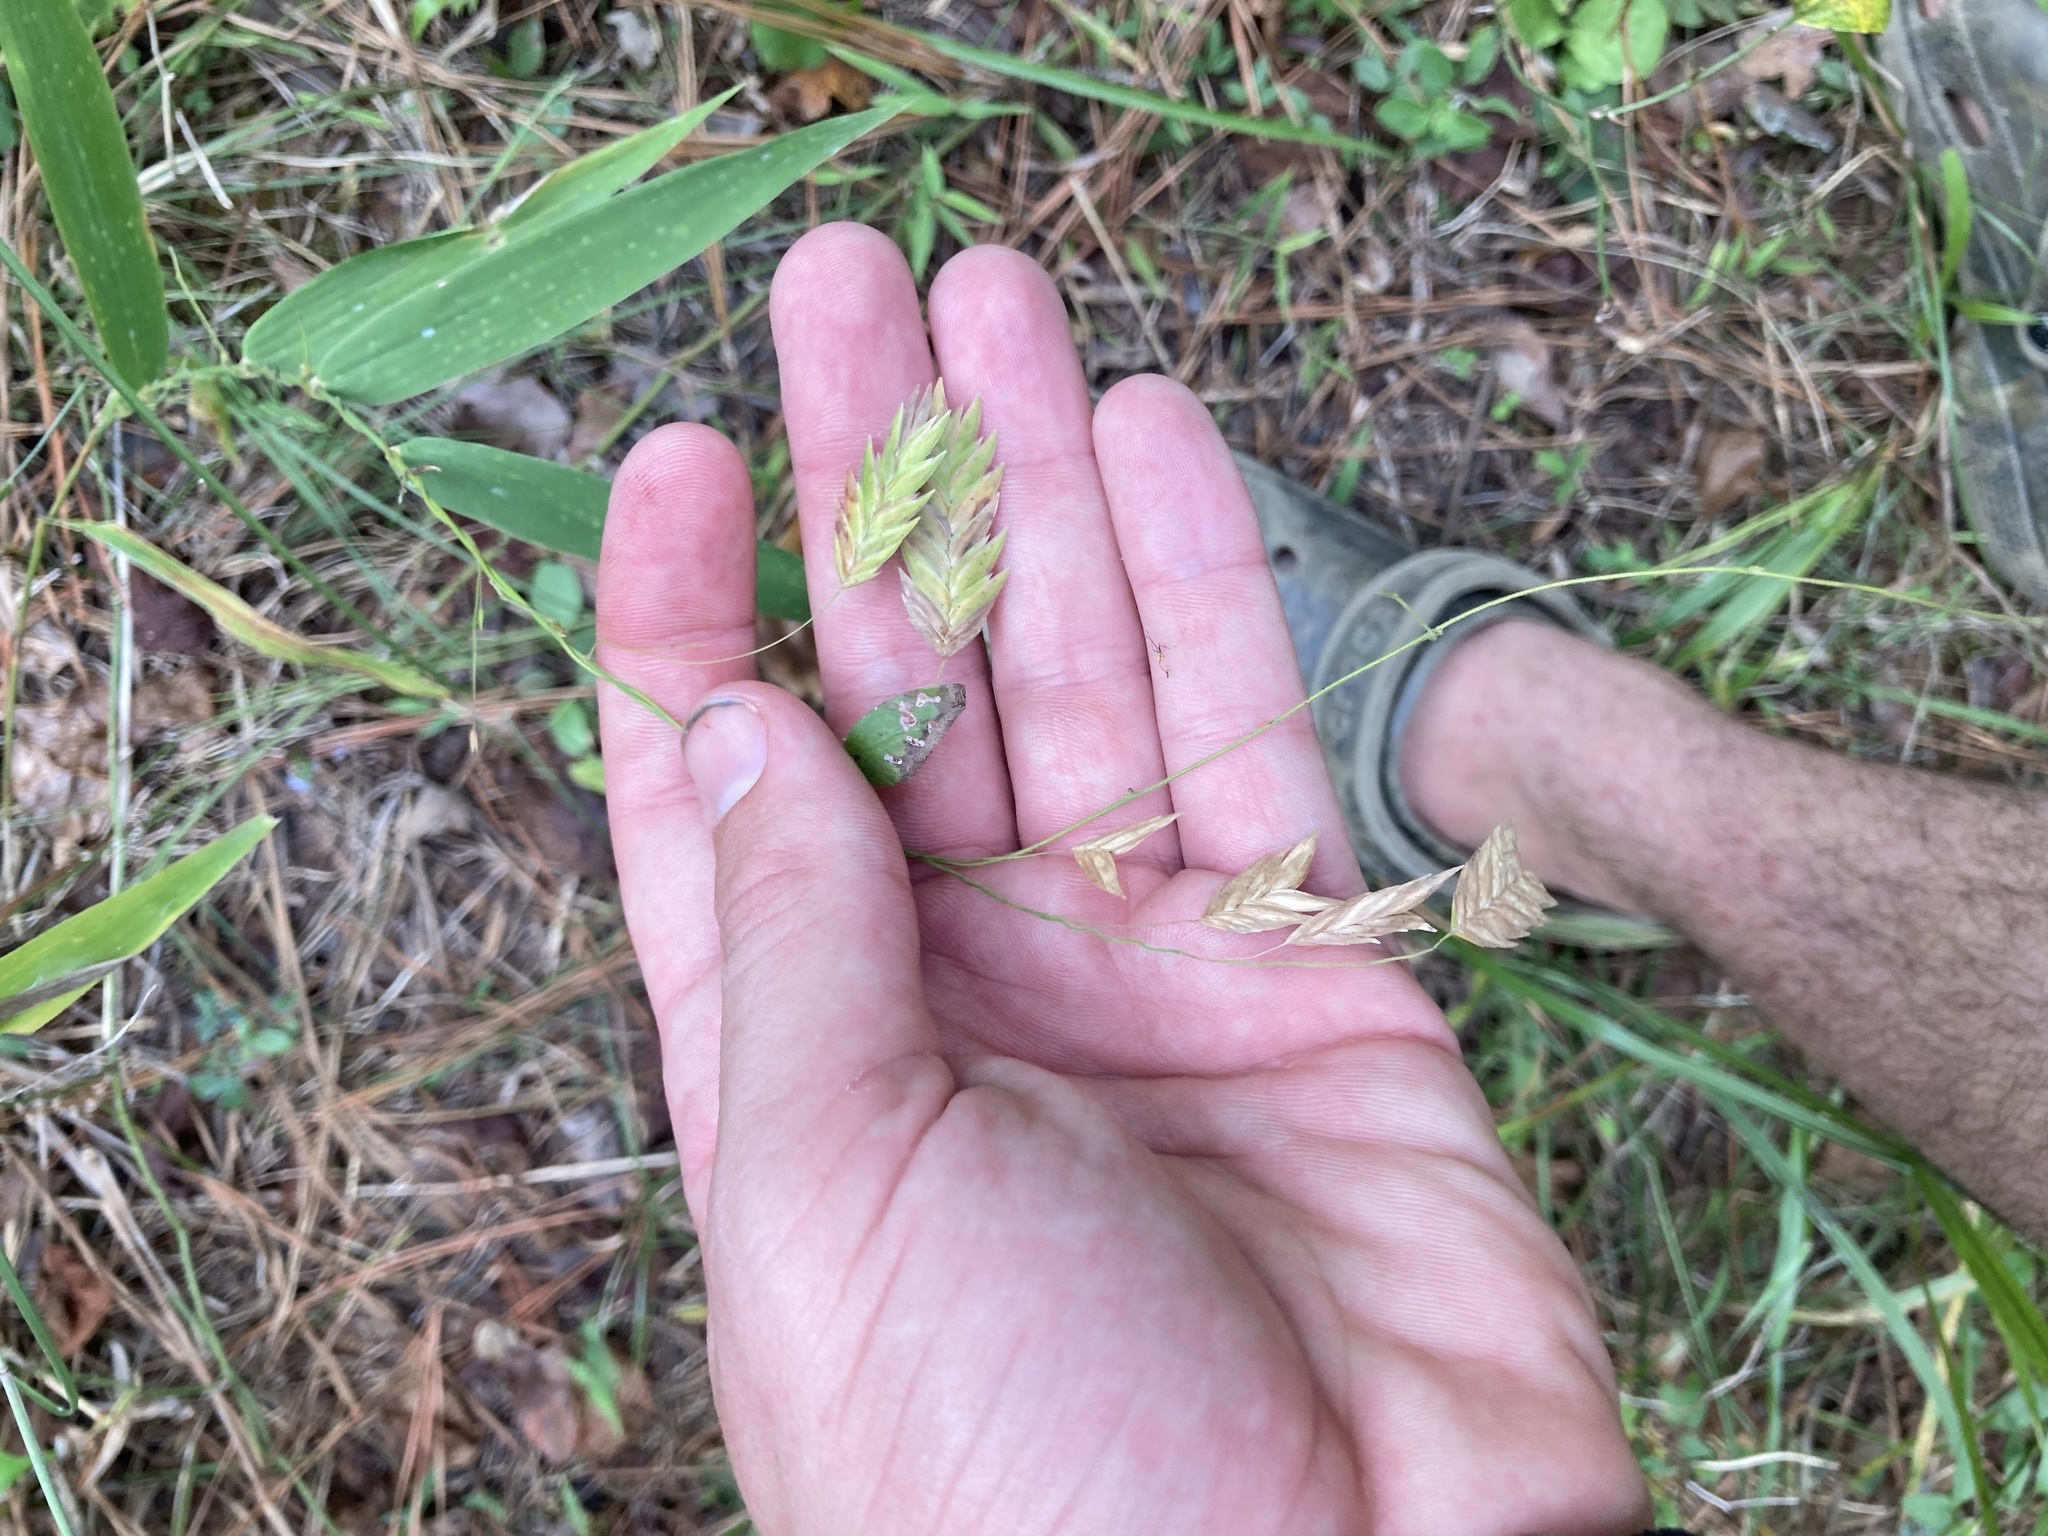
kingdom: Plantae
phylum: Tracheophyta
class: Liliopsida
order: Poales
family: Poaceae
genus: Chasmanthium
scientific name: Chasmanthium latifolium
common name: Broad-leaved chasmanthium
